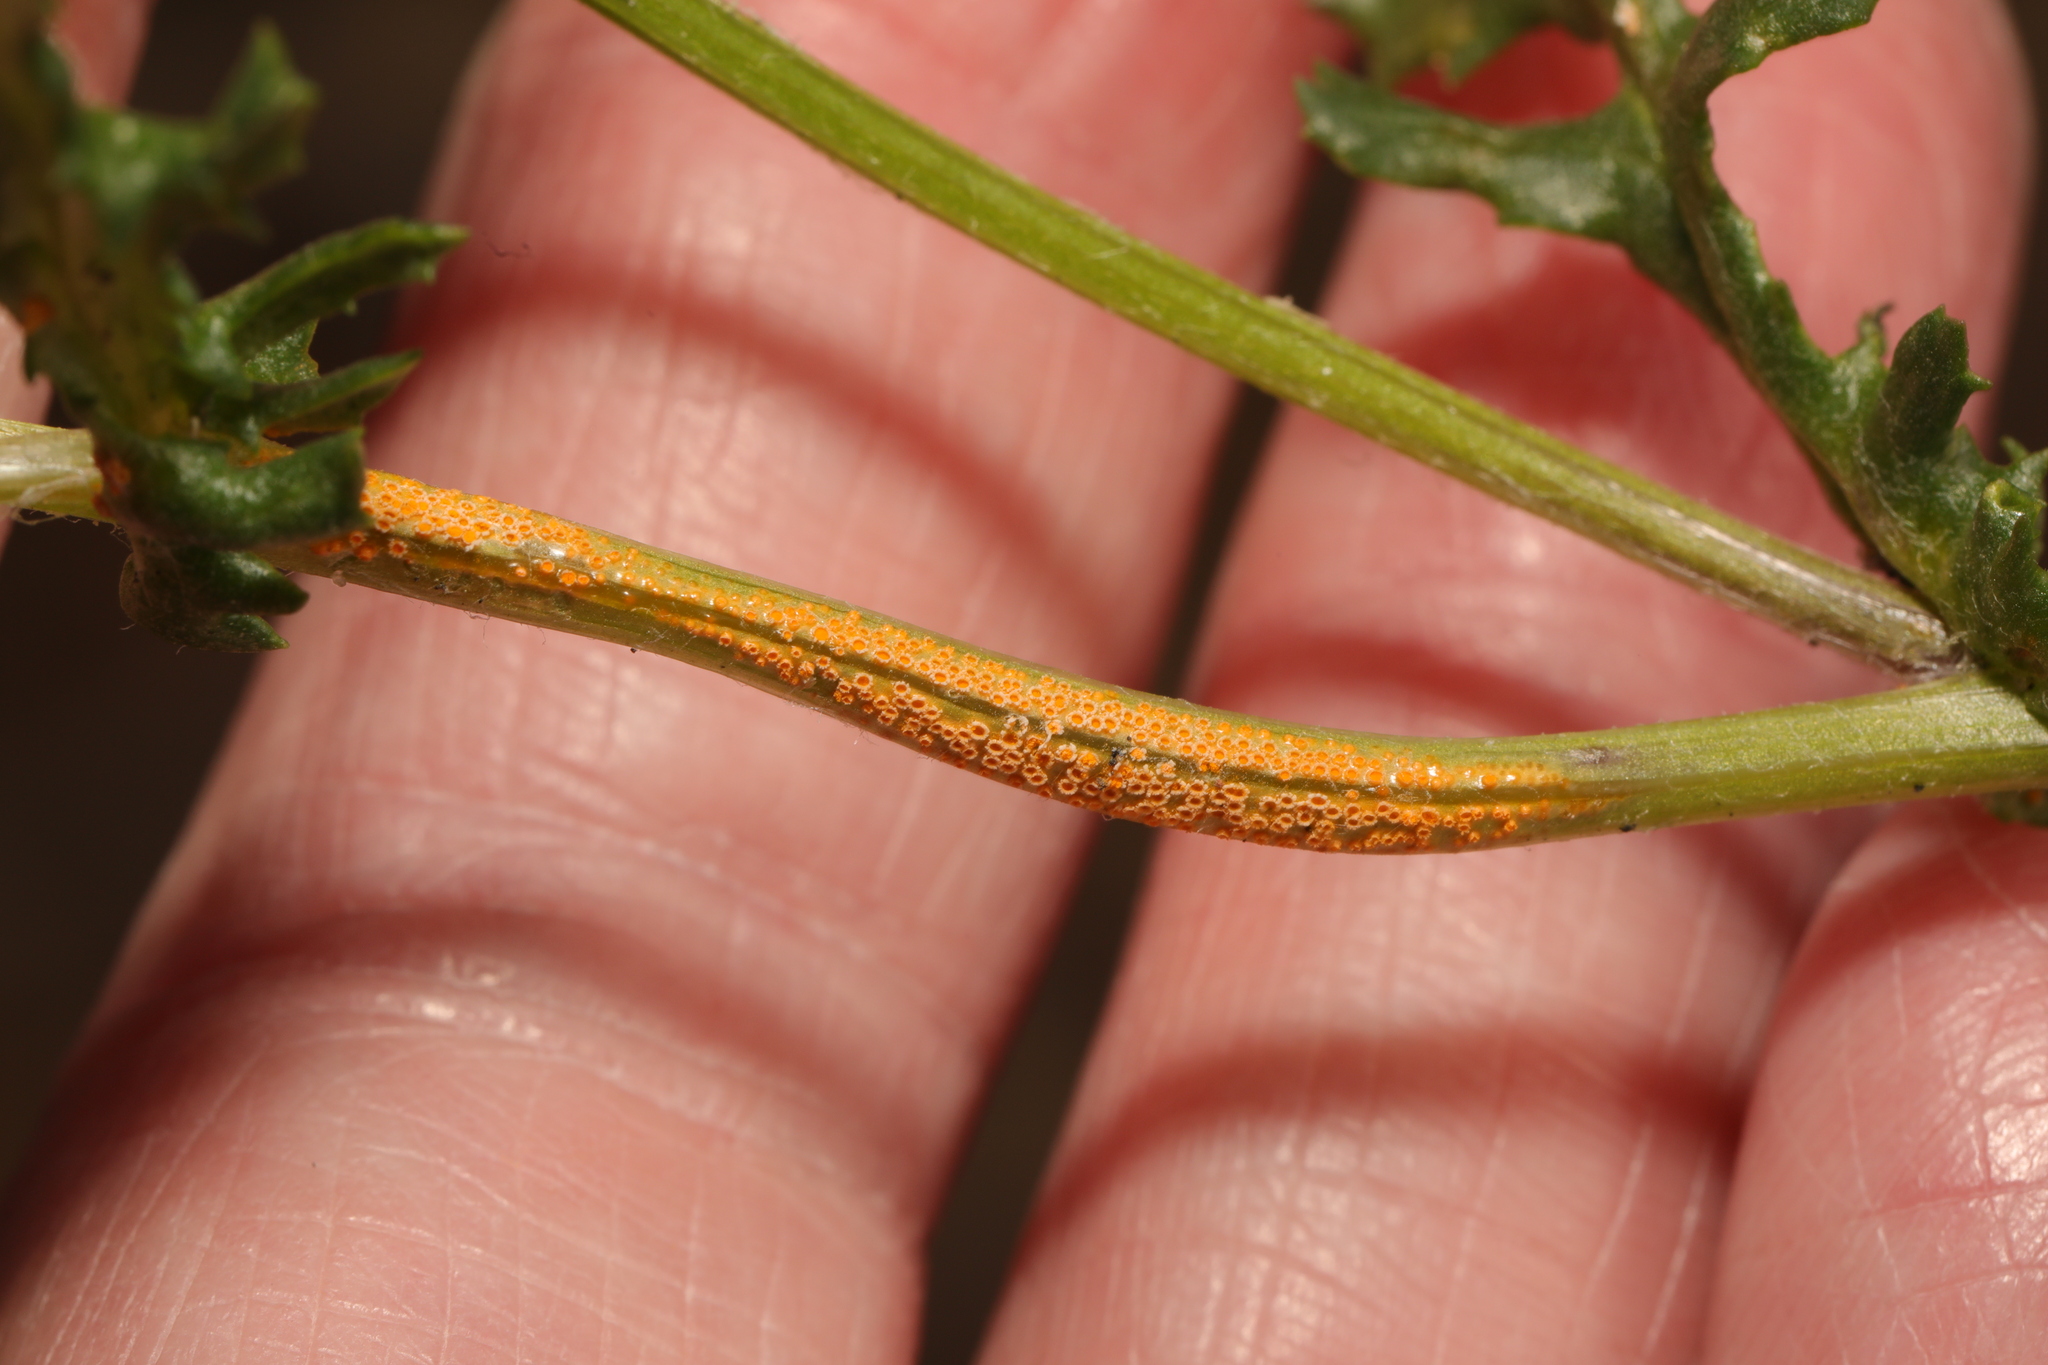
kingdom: Fungi
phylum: Basidiomycota
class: Pucciniomycetes
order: Pucciniales
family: Pucciniaceae
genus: Puccinia
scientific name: Puccinia lagenophorae
